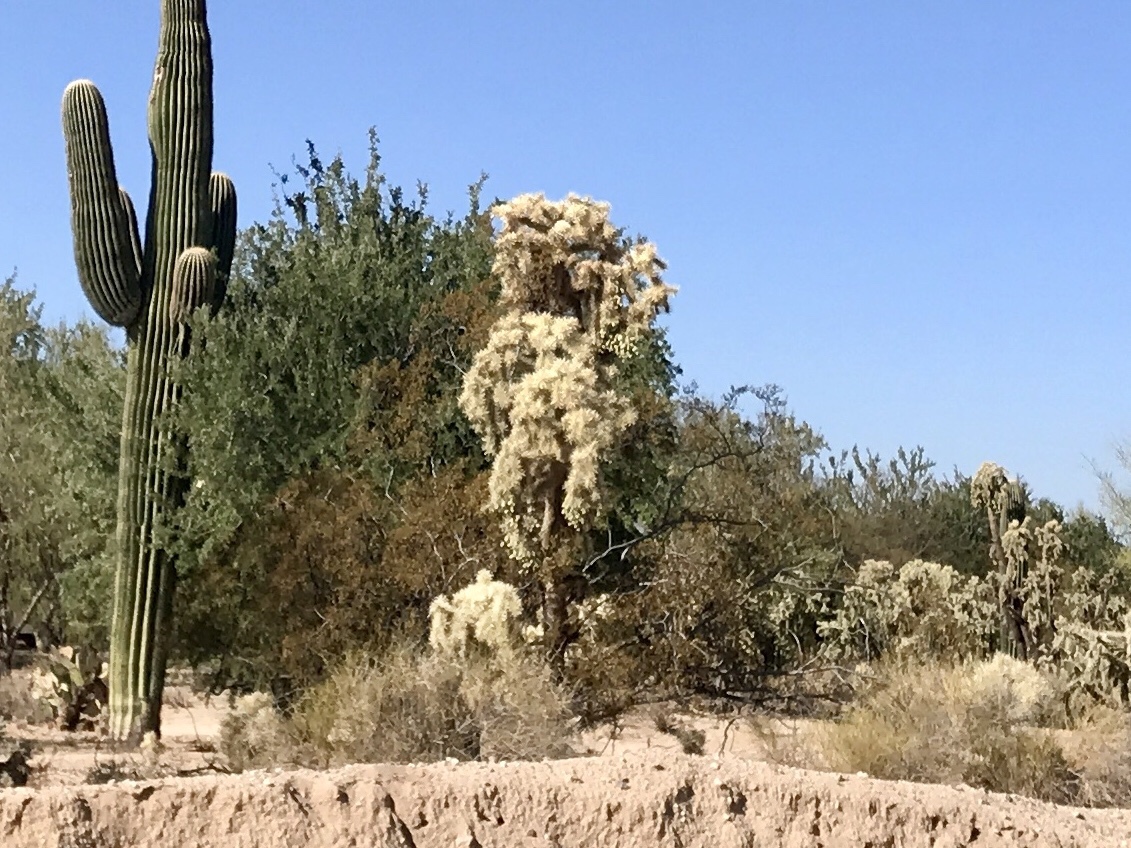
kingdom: Plantae
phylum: Tracheophyta
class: Magnoliopsida
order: Caryophyllales
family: Cactaceae
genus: Cylindropuntia
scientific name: Cylindropuntia fulgida
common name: Jumping cholla
